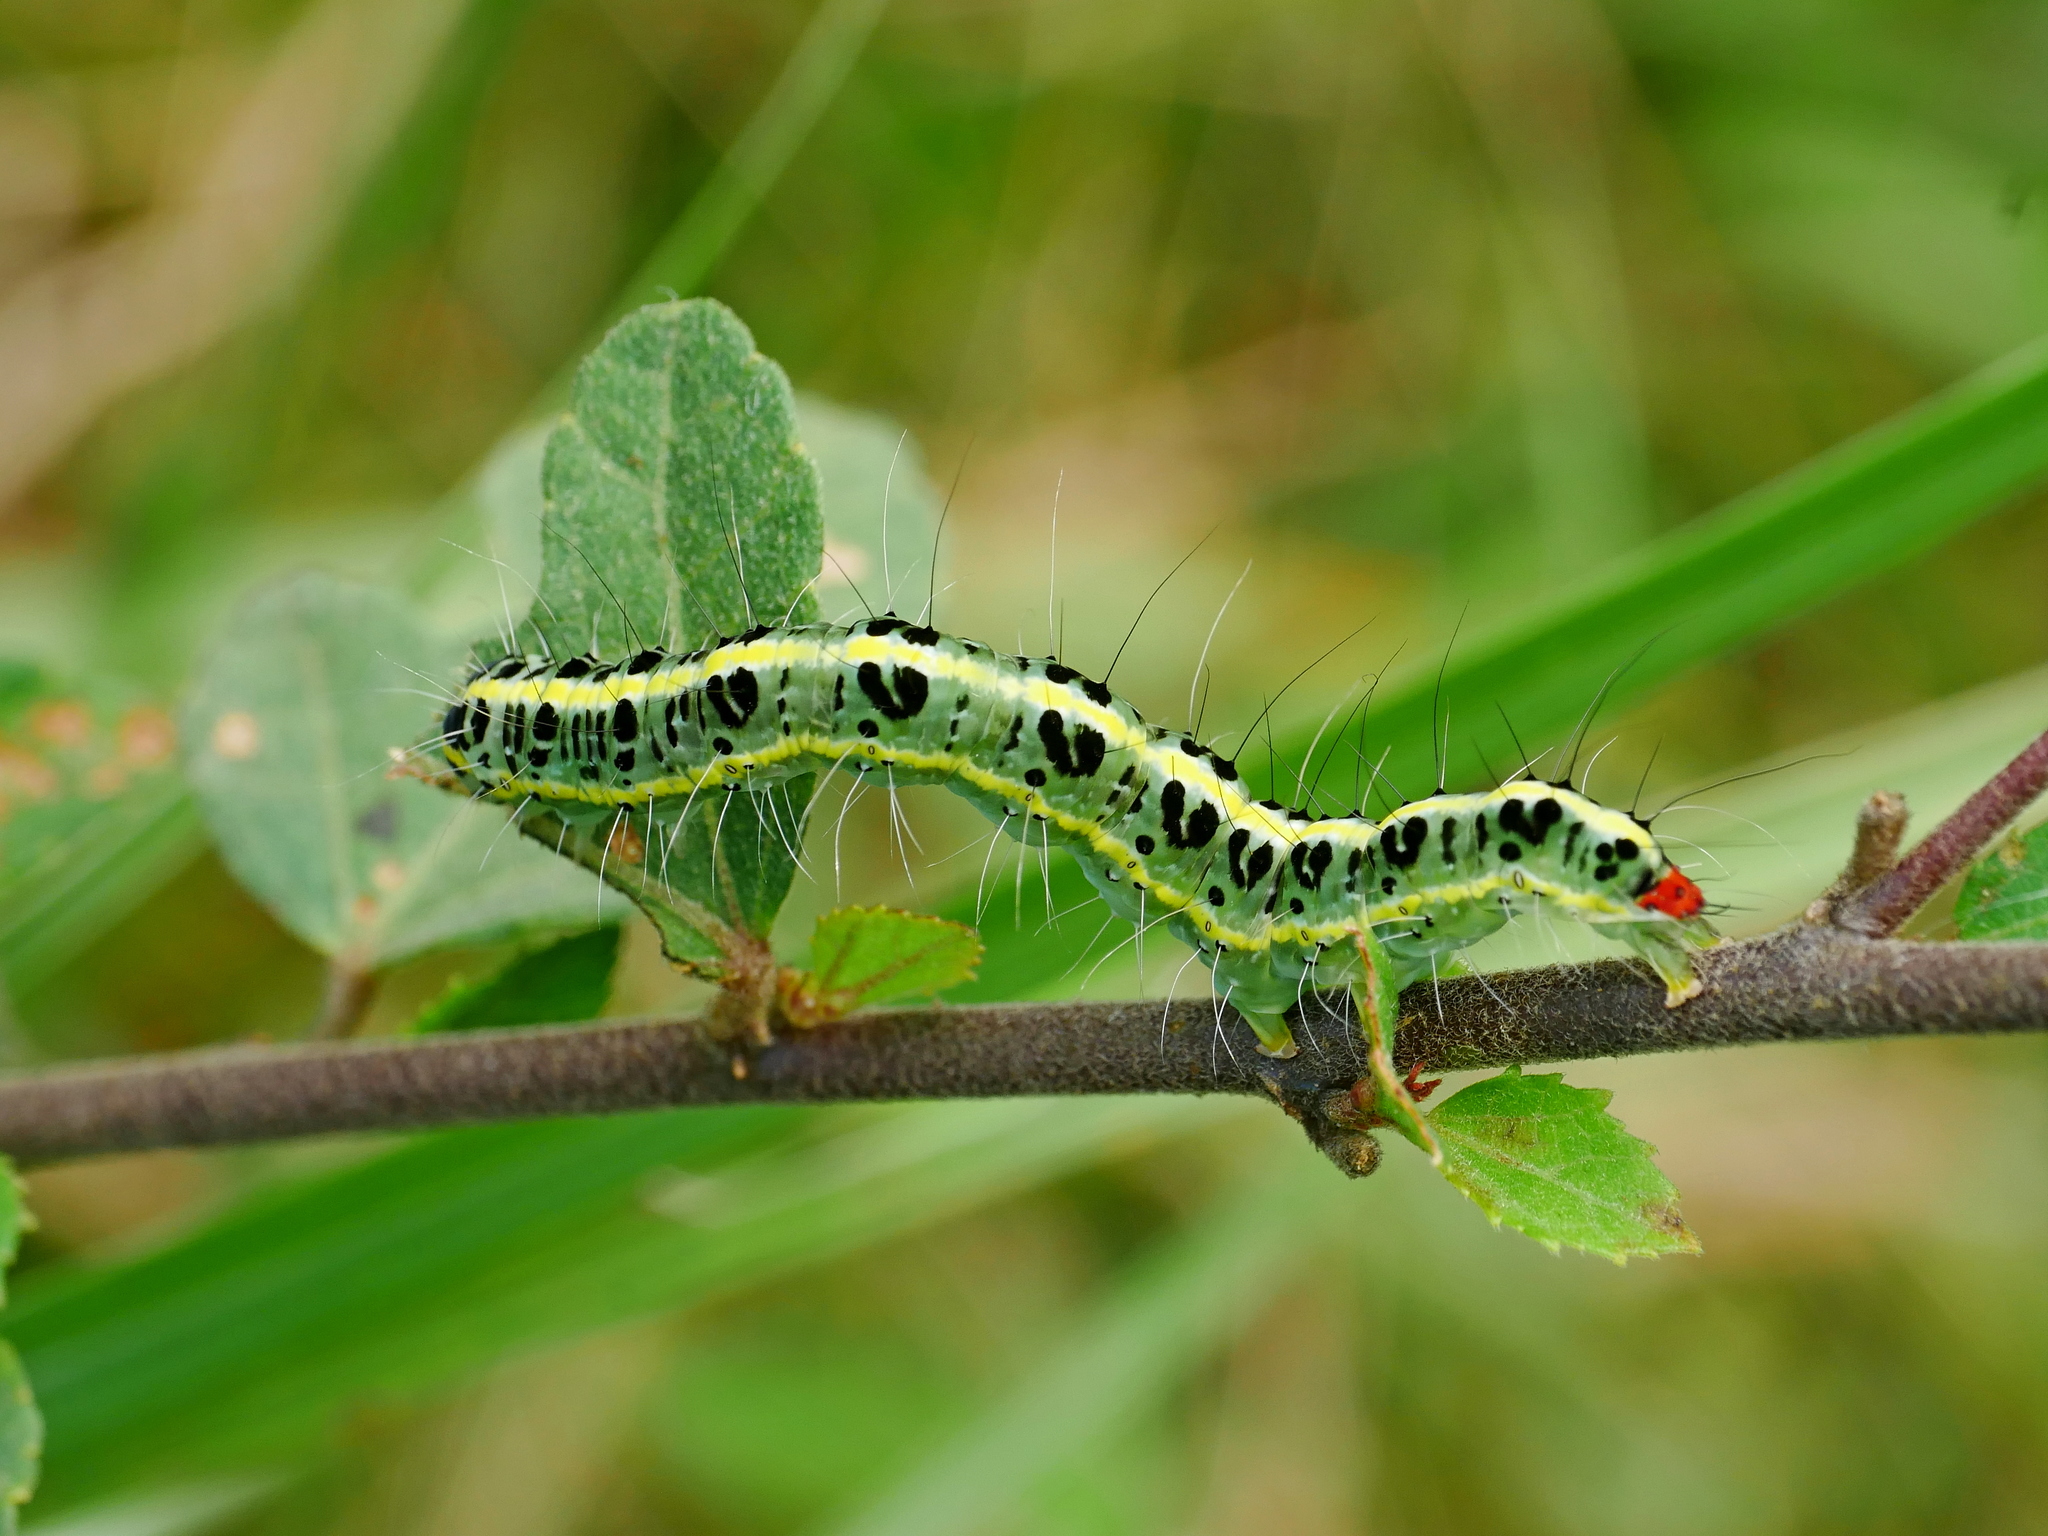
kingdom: Animalia
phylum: Arthropoda
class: Insecta
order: Lepidoptera
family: Nolidae
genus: Xanthodes
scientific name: Xanthodes transversa
